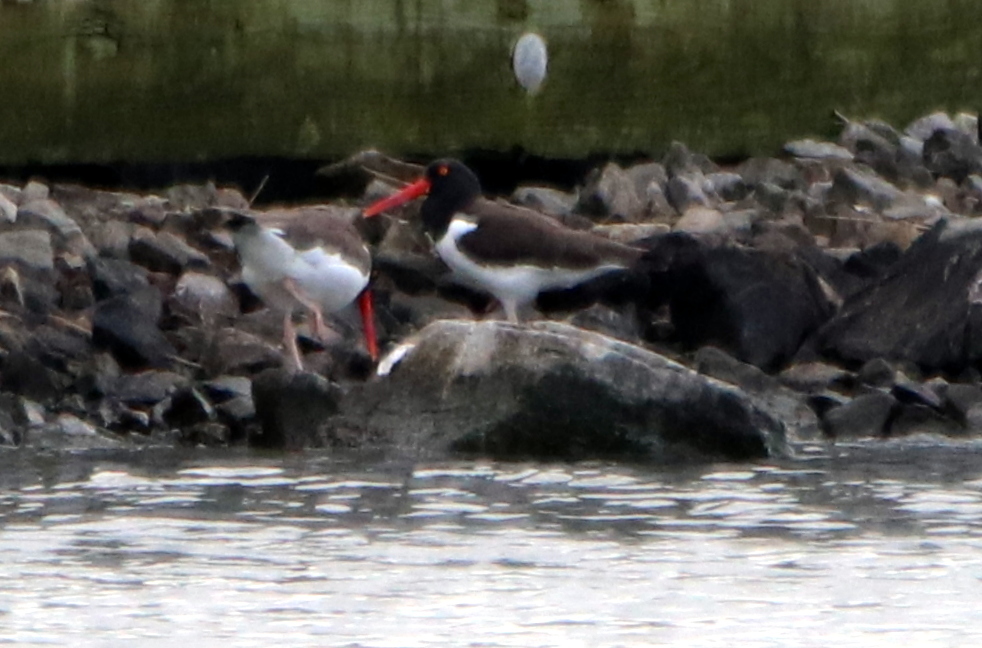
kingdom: Animalia
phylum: Chordata
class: Aves
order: Charadriiformes
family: Haematopodidae
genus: Haematopus
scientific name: Haematopus palliatus
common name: American oystercatcher
